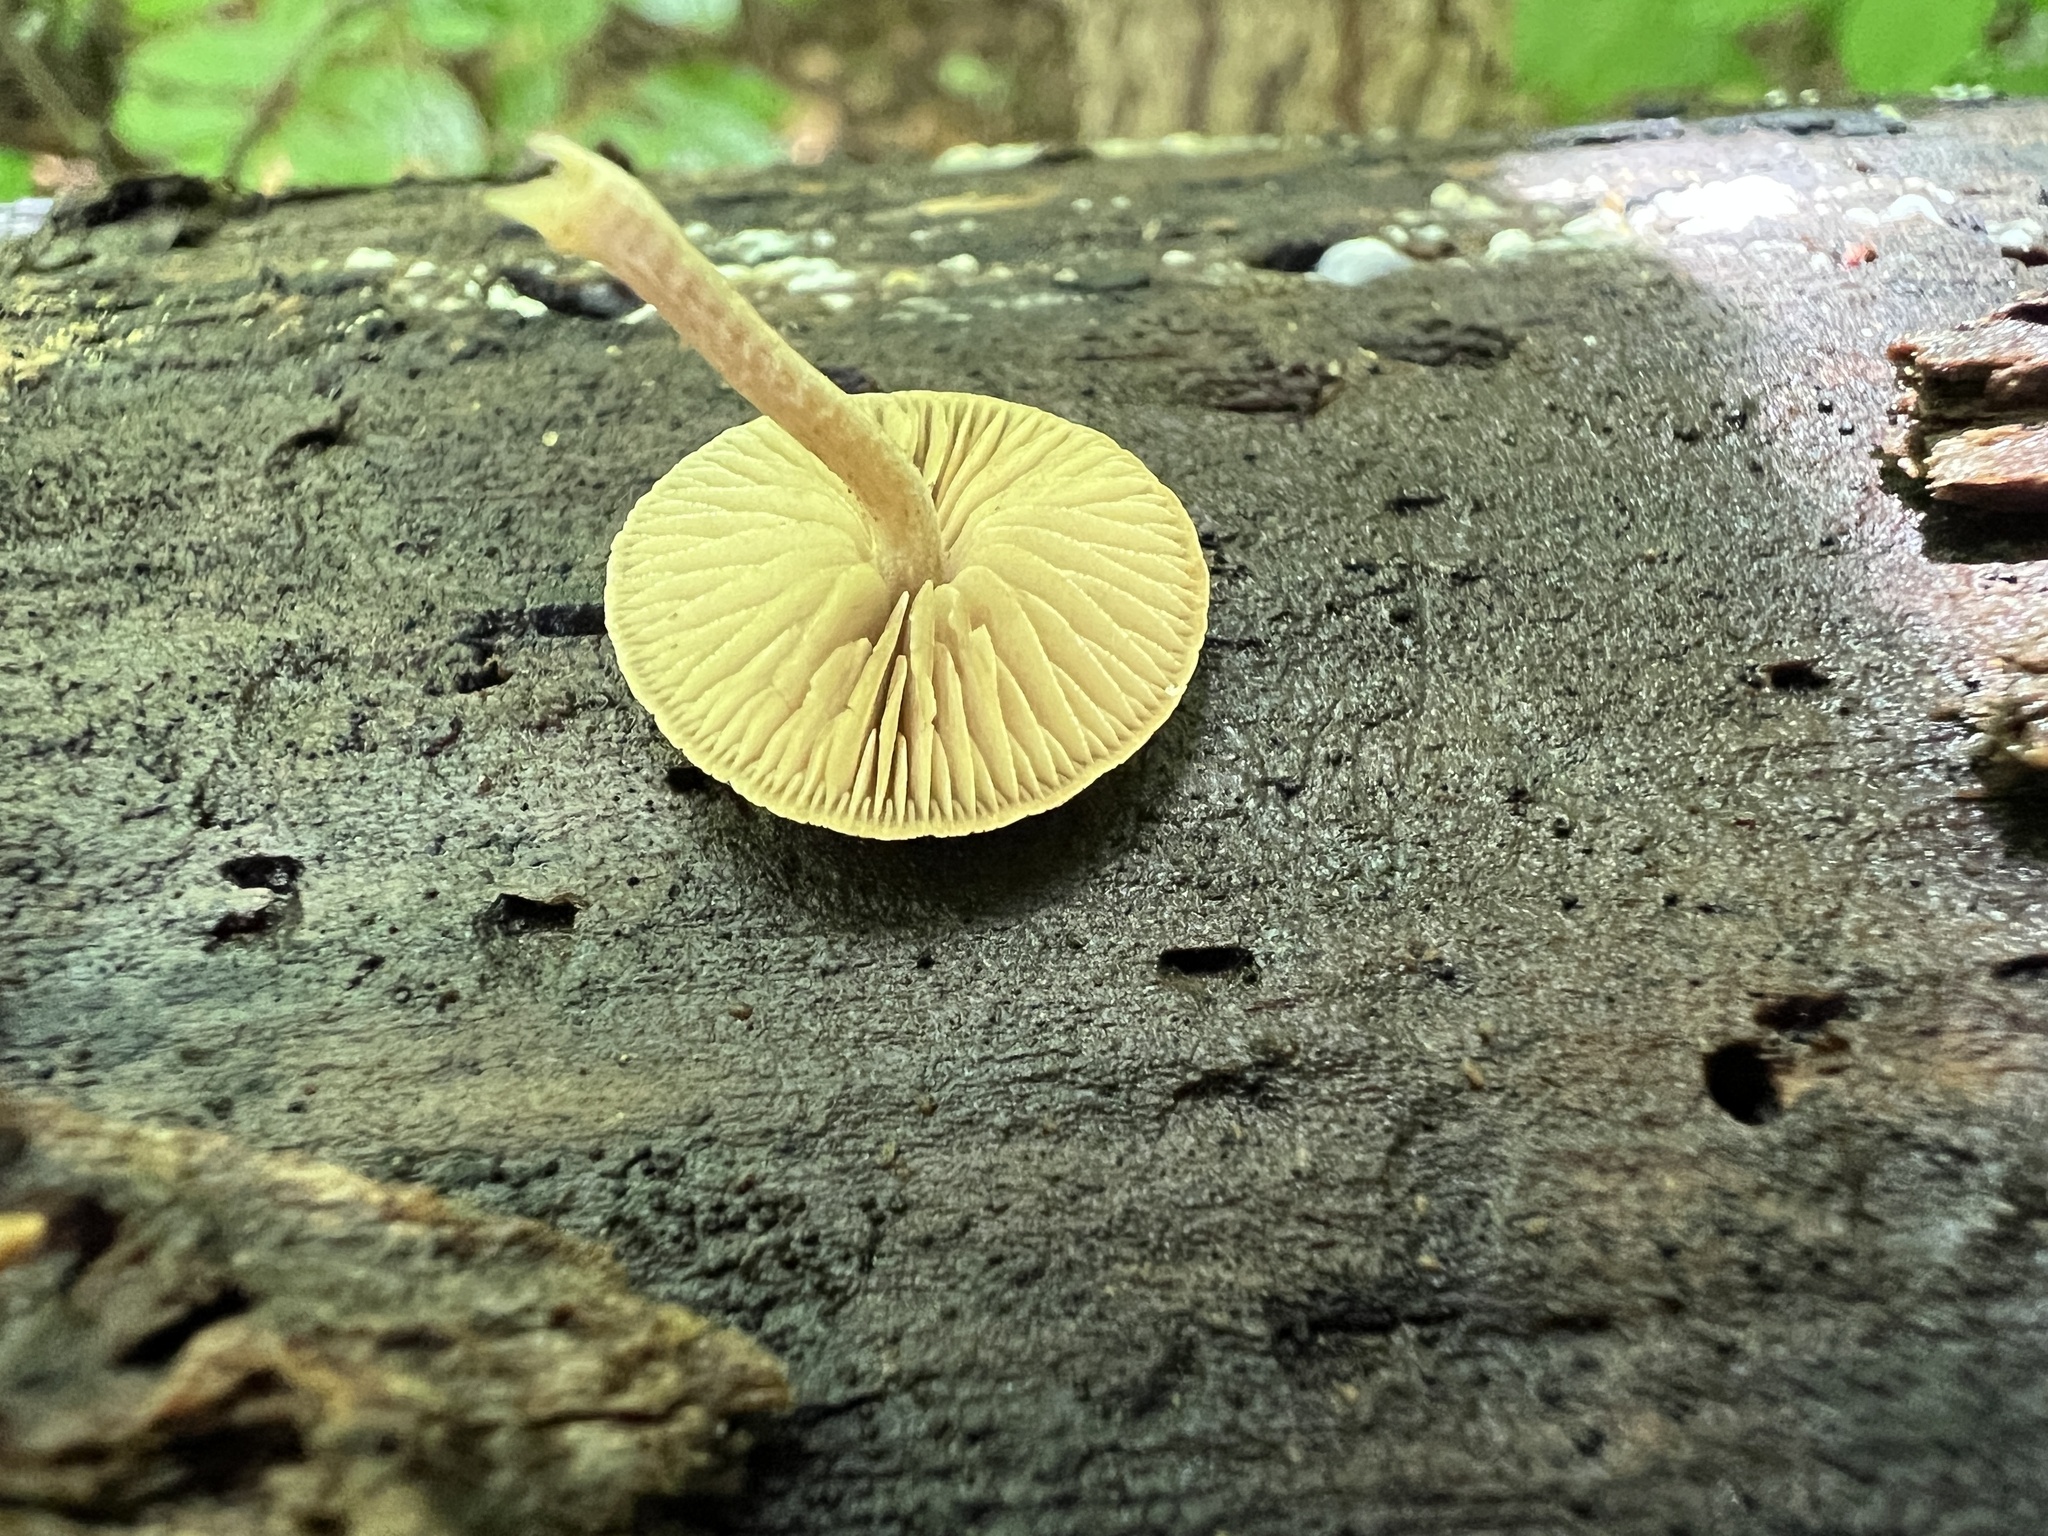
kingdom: Fungi
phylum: Basidiomycota
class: Agaricomycetes
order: Agaricales
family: Crepidotaceae
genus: Simocybe
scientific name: Simocybe serrulata
